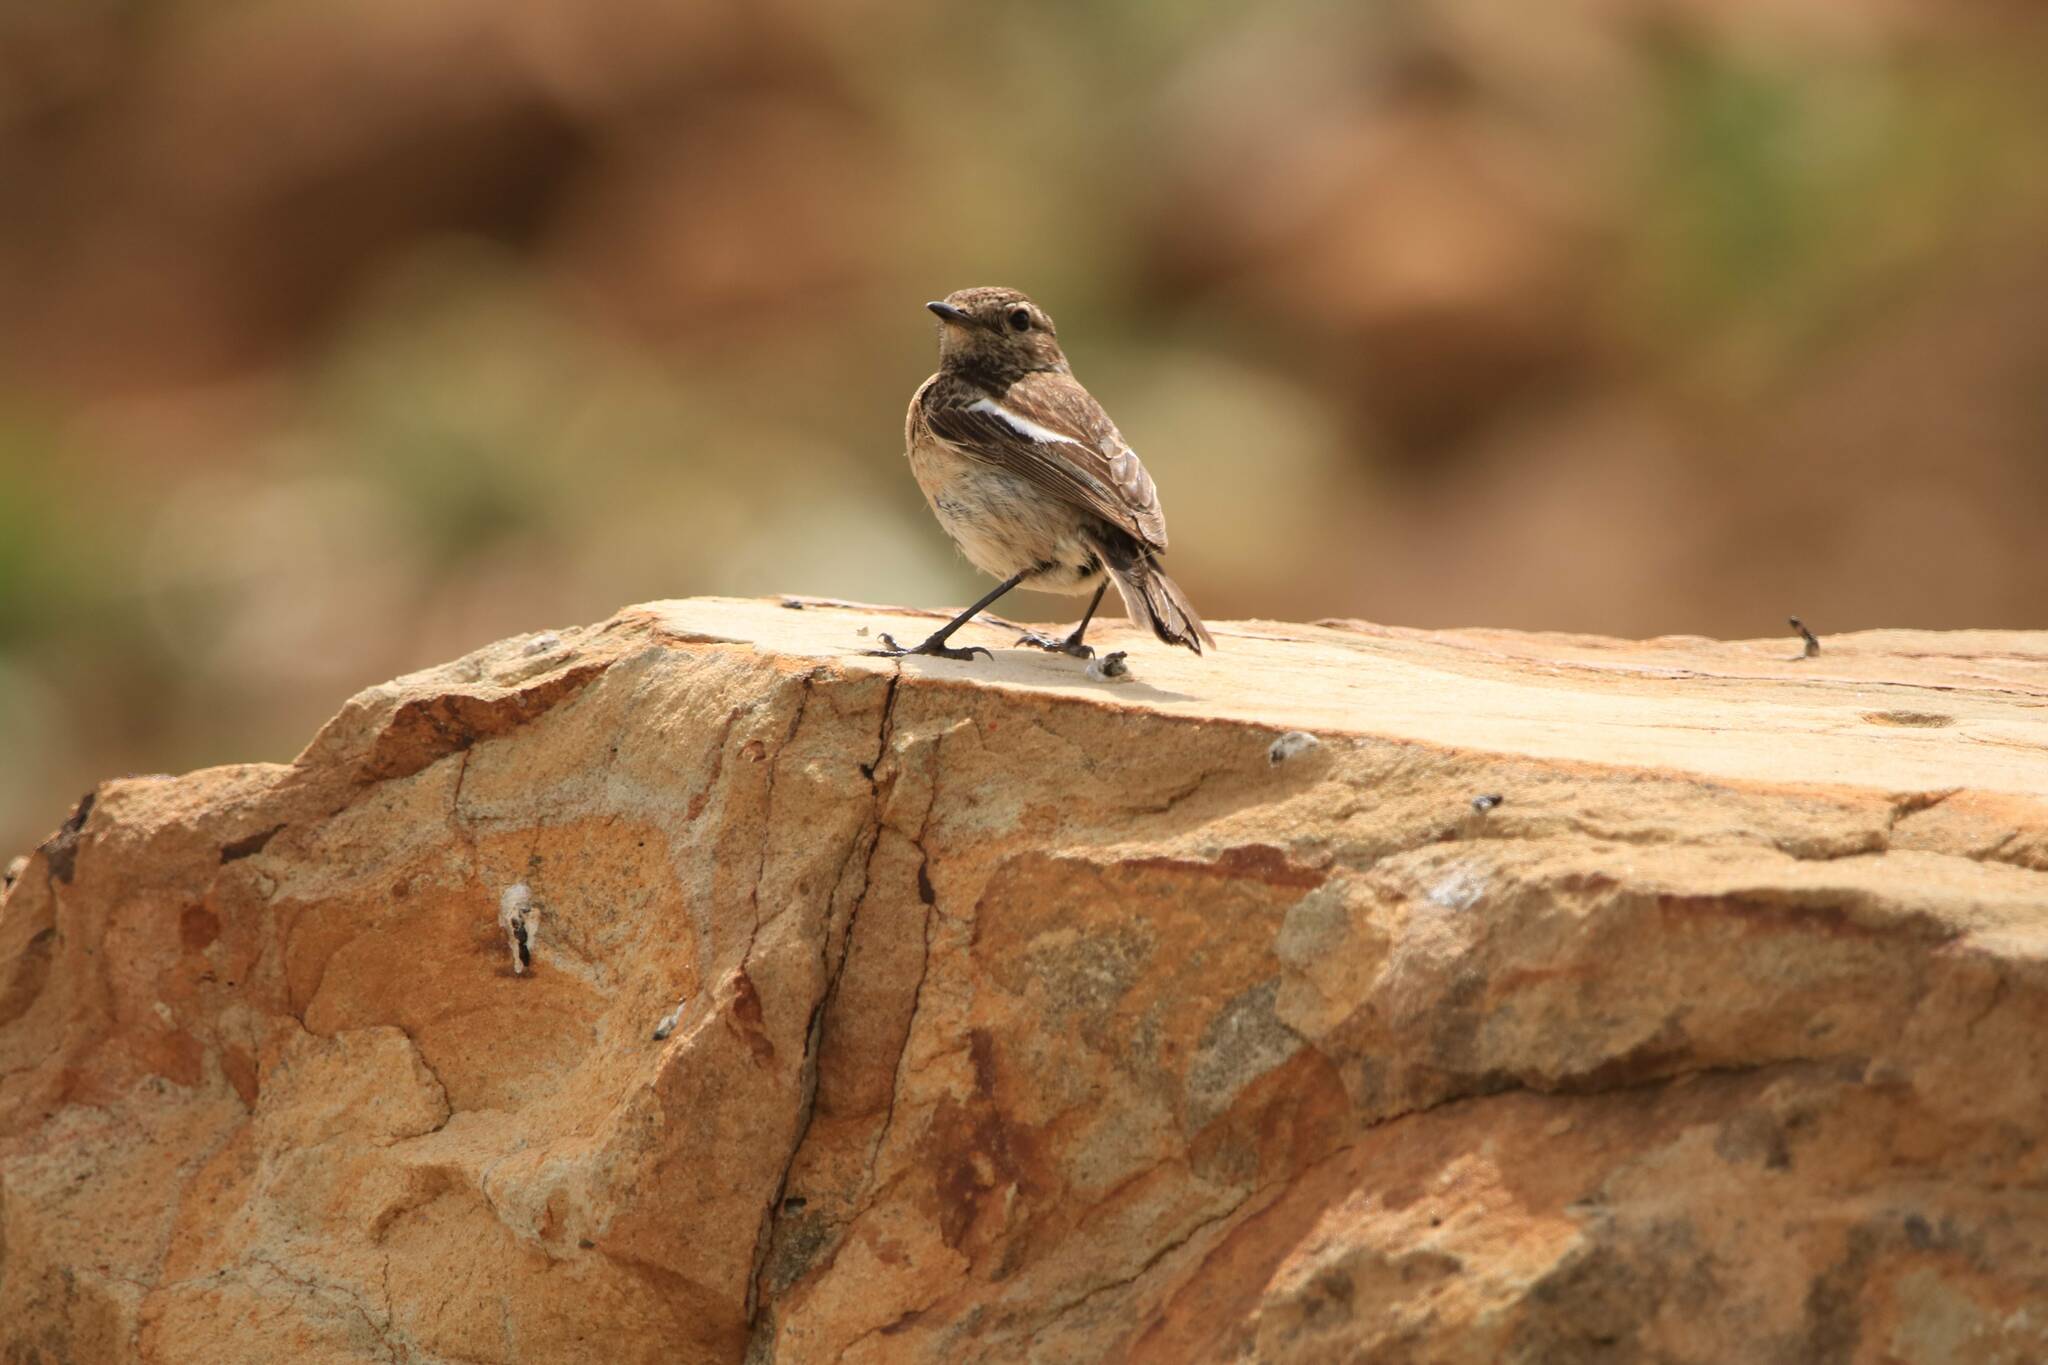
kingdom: Animalia
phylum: Chordata
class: Aves
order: Passeriformes
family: Muscicapidae
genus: Saxicola
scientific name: Saxicola rubicola
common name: European stonechat
